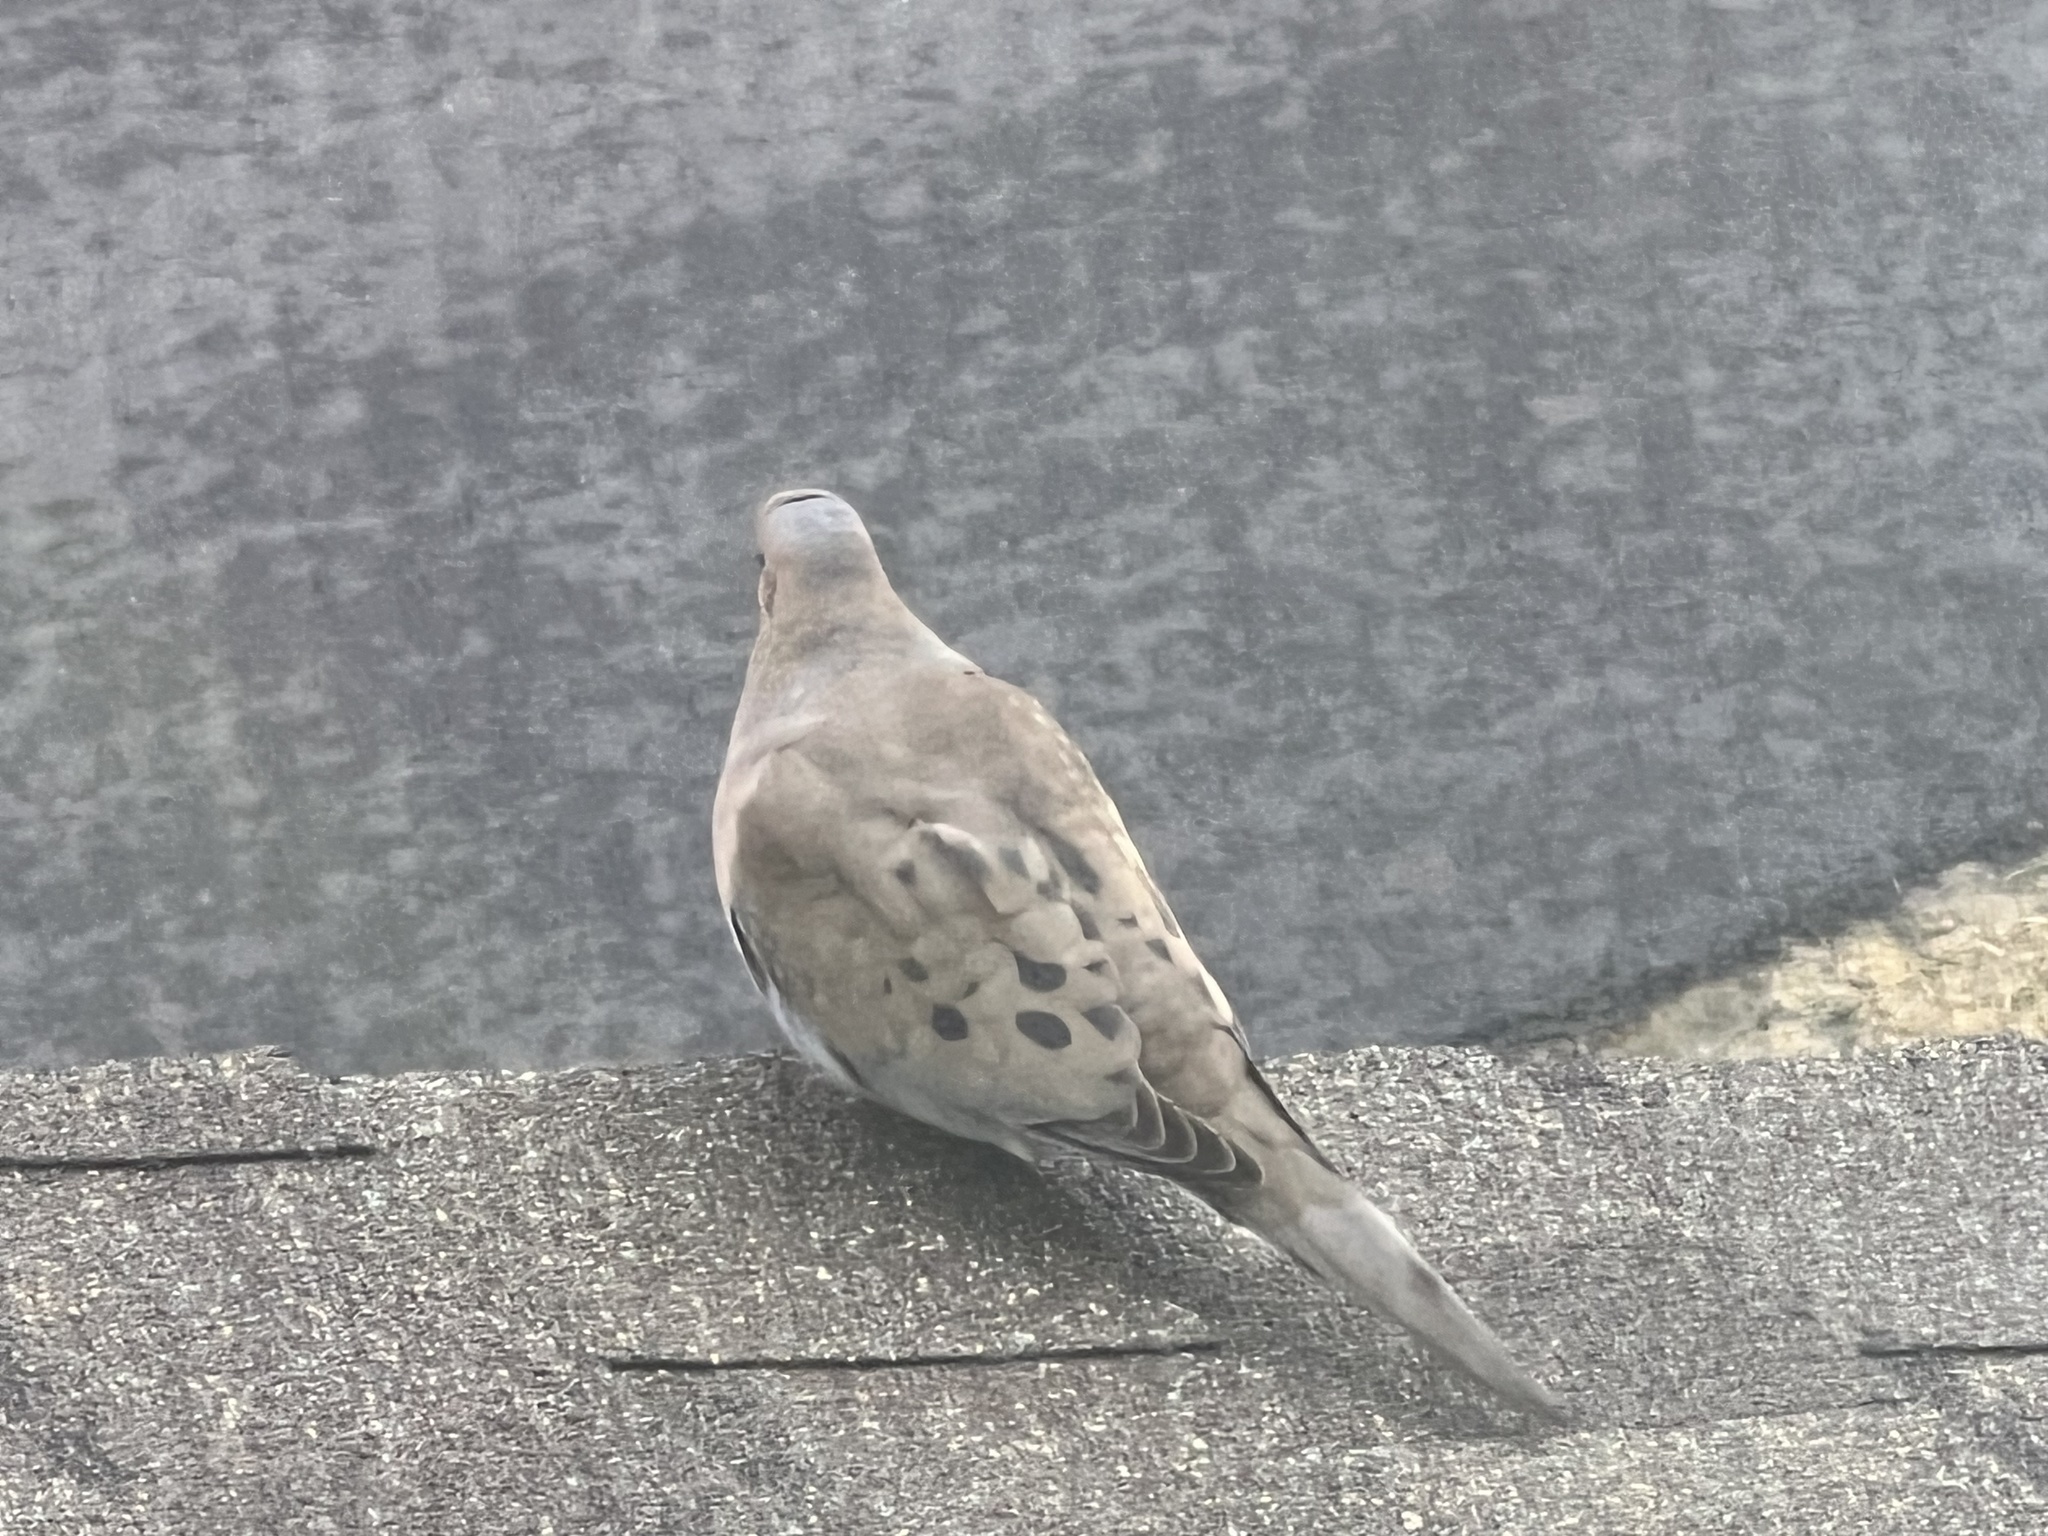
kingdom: Animalia
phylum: Chordata
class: Aves
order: Columbiformes
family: Columbidae
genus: Zenaida
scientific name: Zenaida macroura
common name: Mourning dove
